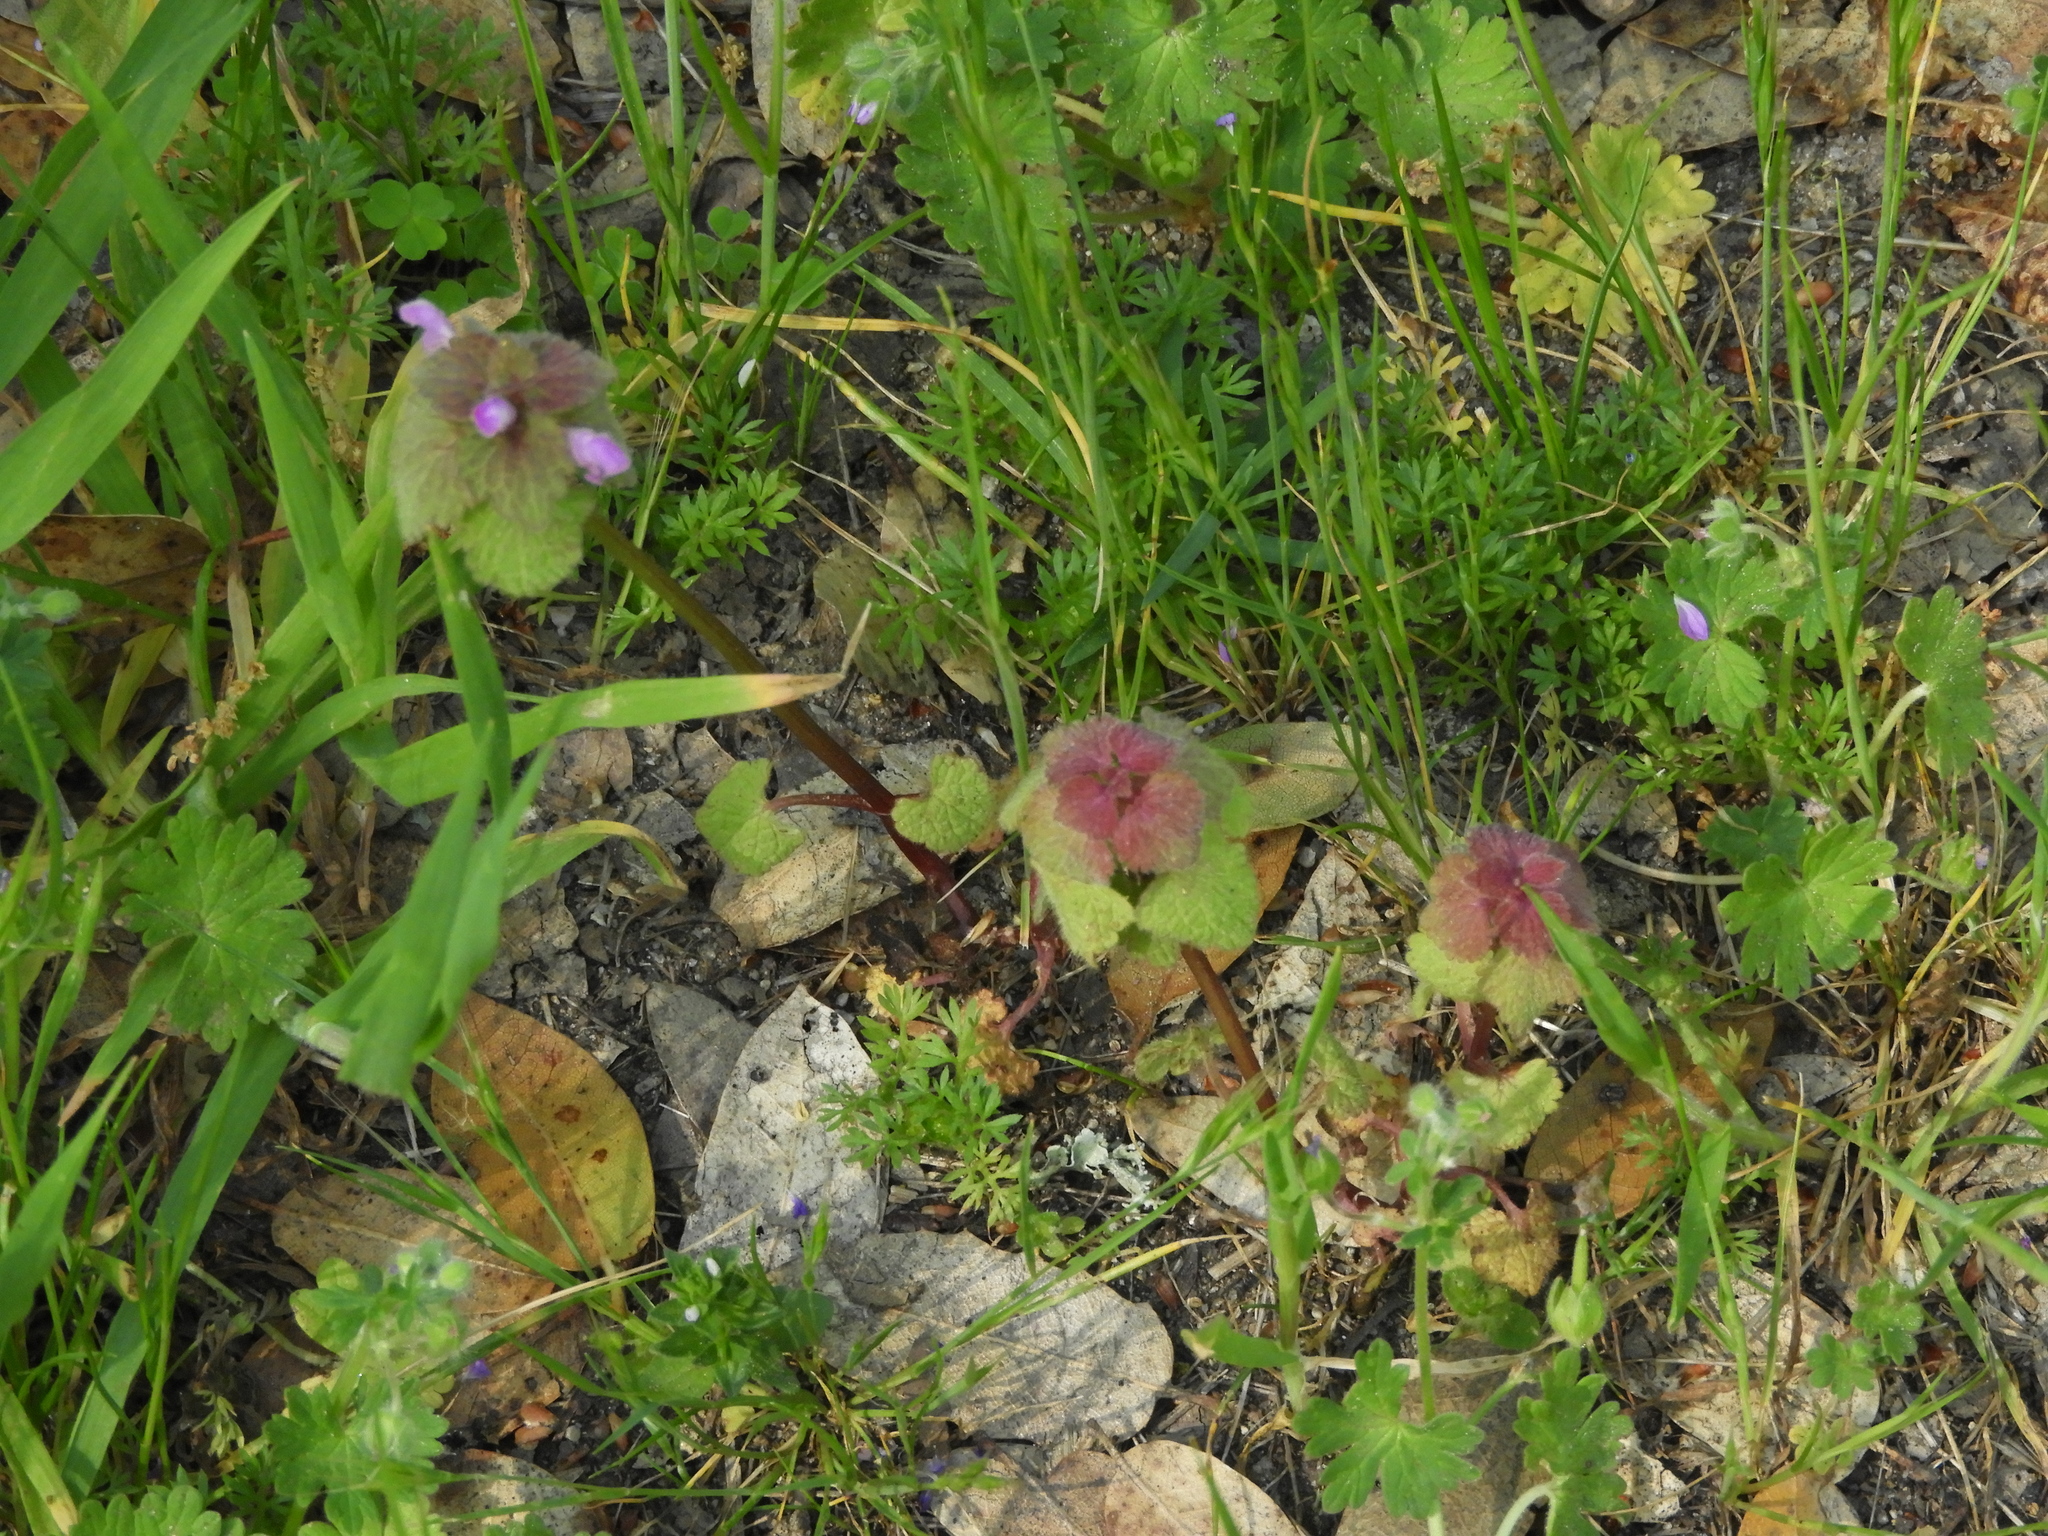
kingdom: Plantae
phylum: Tracheophyta
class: Magnoliopsida
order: Lamiales
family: Lamiaceae
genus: Lamium
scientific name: Lamium purpureum
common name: Red dead-nettle
